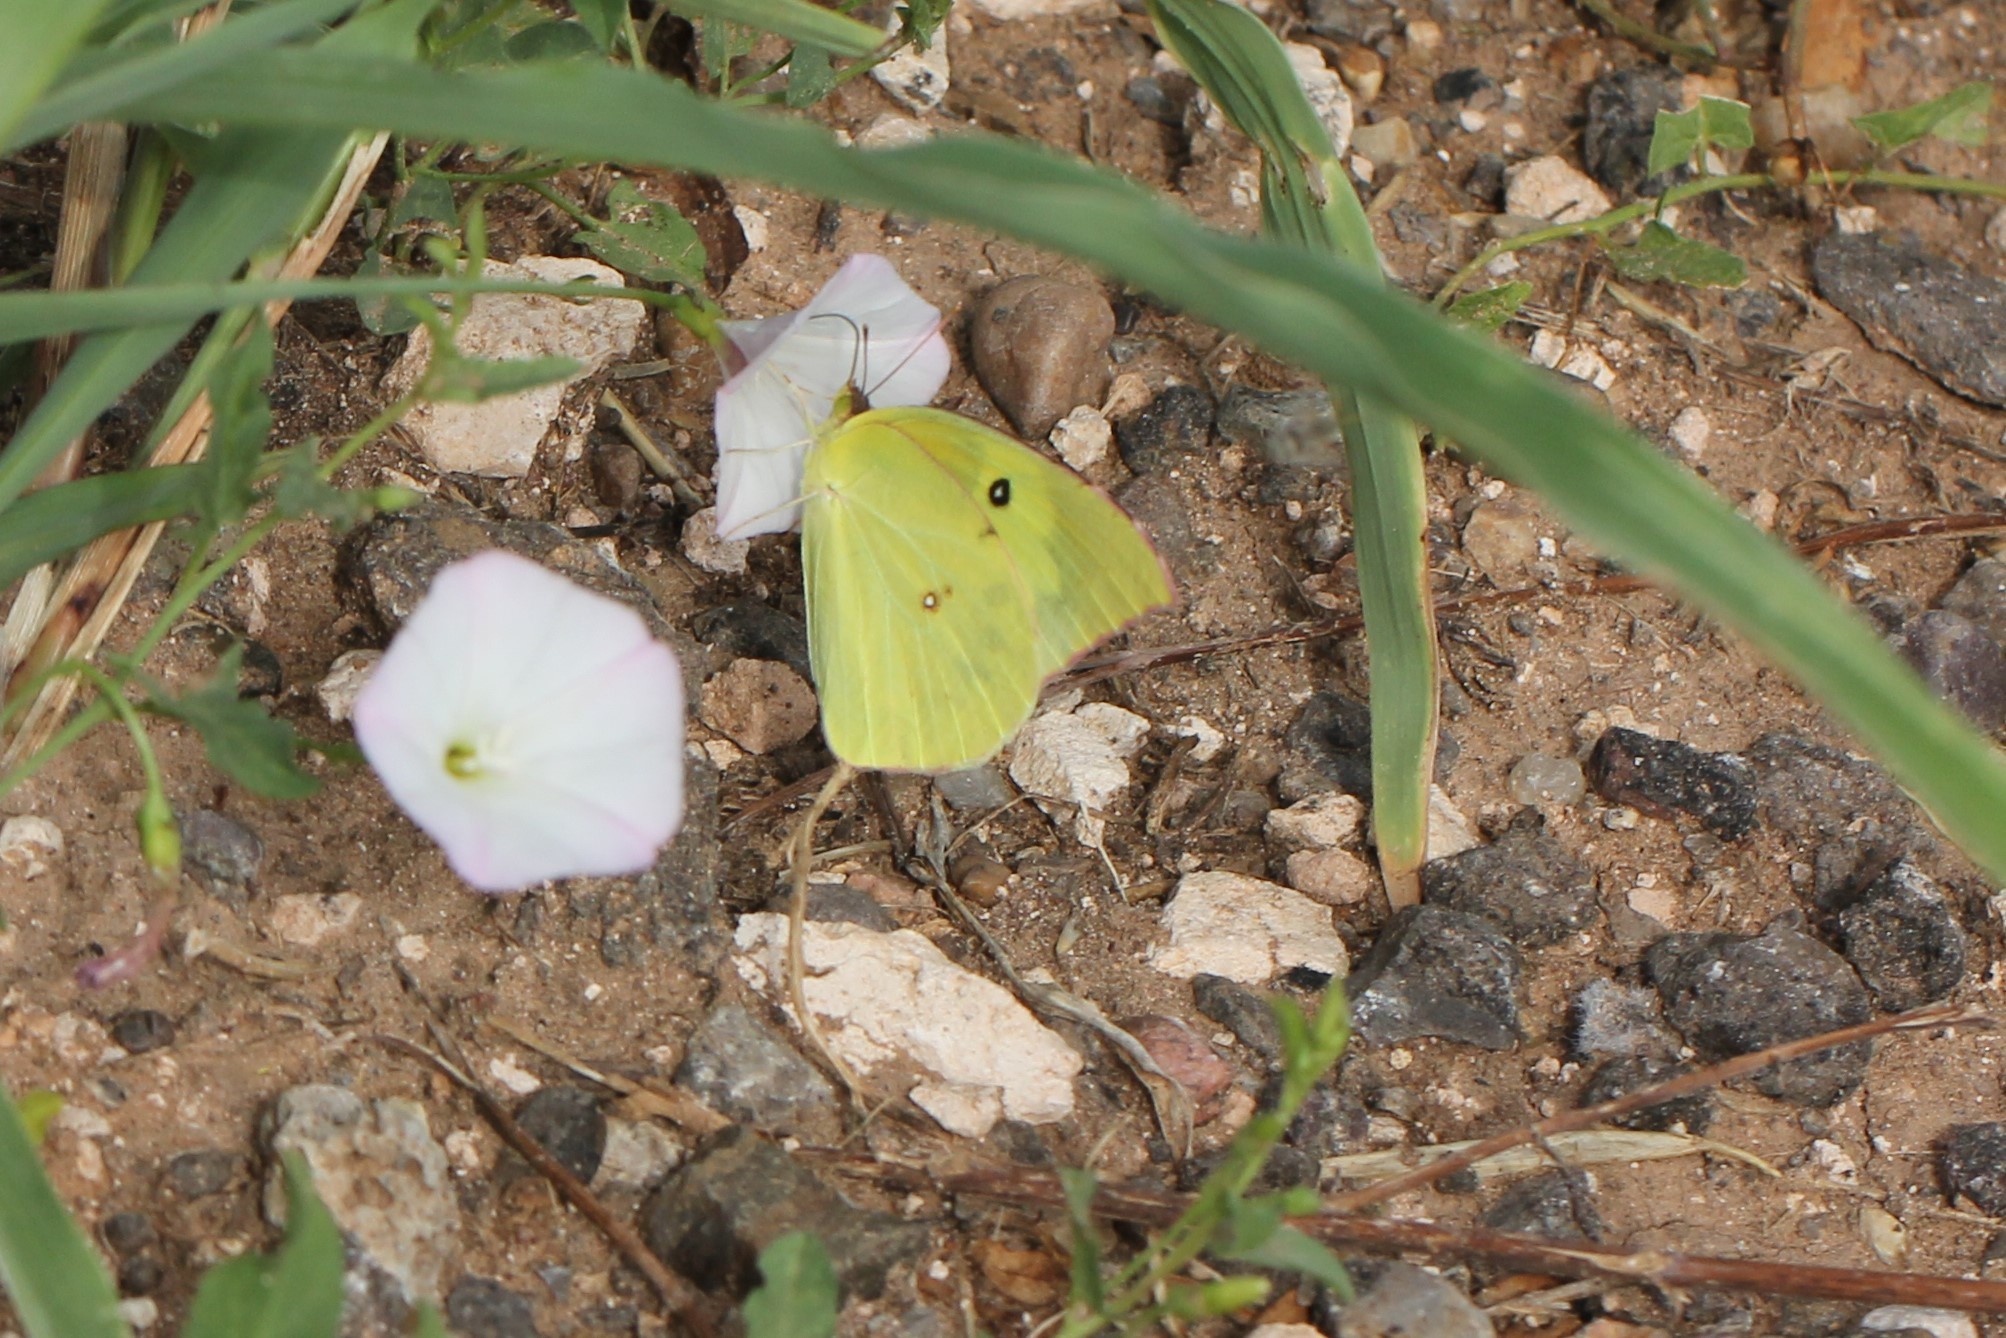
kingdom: Animalia
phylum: Arthropoda
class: Insecta
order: Lepidoptera
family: Pieridae
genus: Zerene
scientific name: Zerene cesonia
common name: Southern dogface
